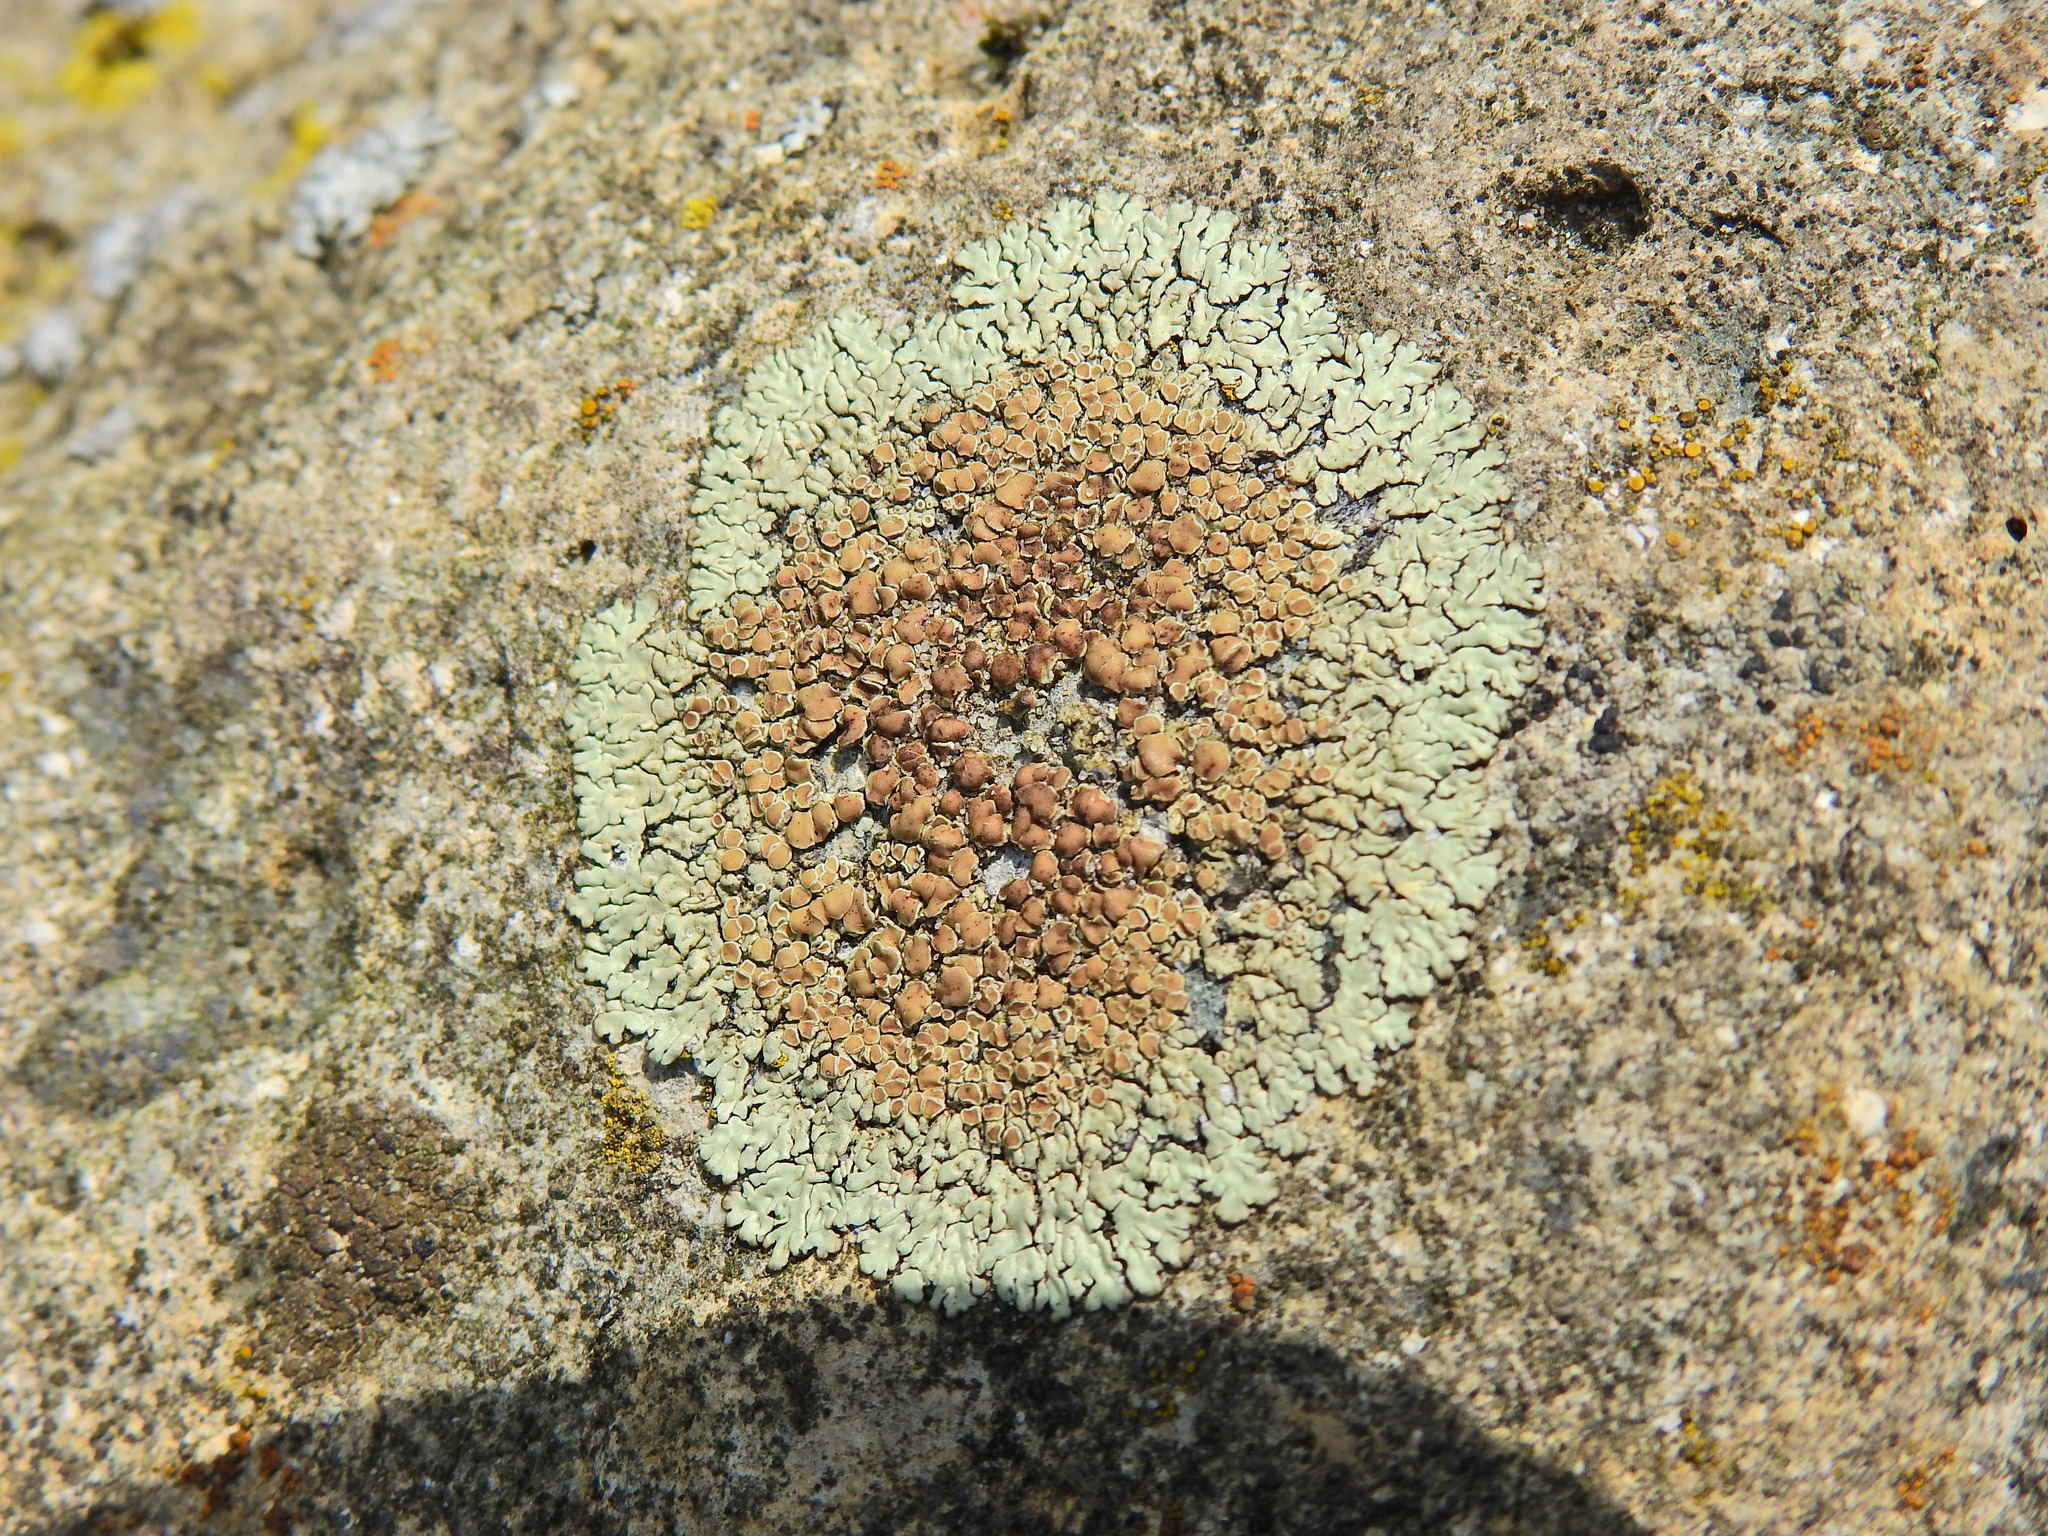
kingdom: Fungi
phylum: Ascomycota
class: Lecanoromycetes
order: Lecanorales
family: Lecanoraceae
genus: Protoparmeliopsis
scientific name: Protoparmeliopsis muralis
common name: Stonewall rim lichen
